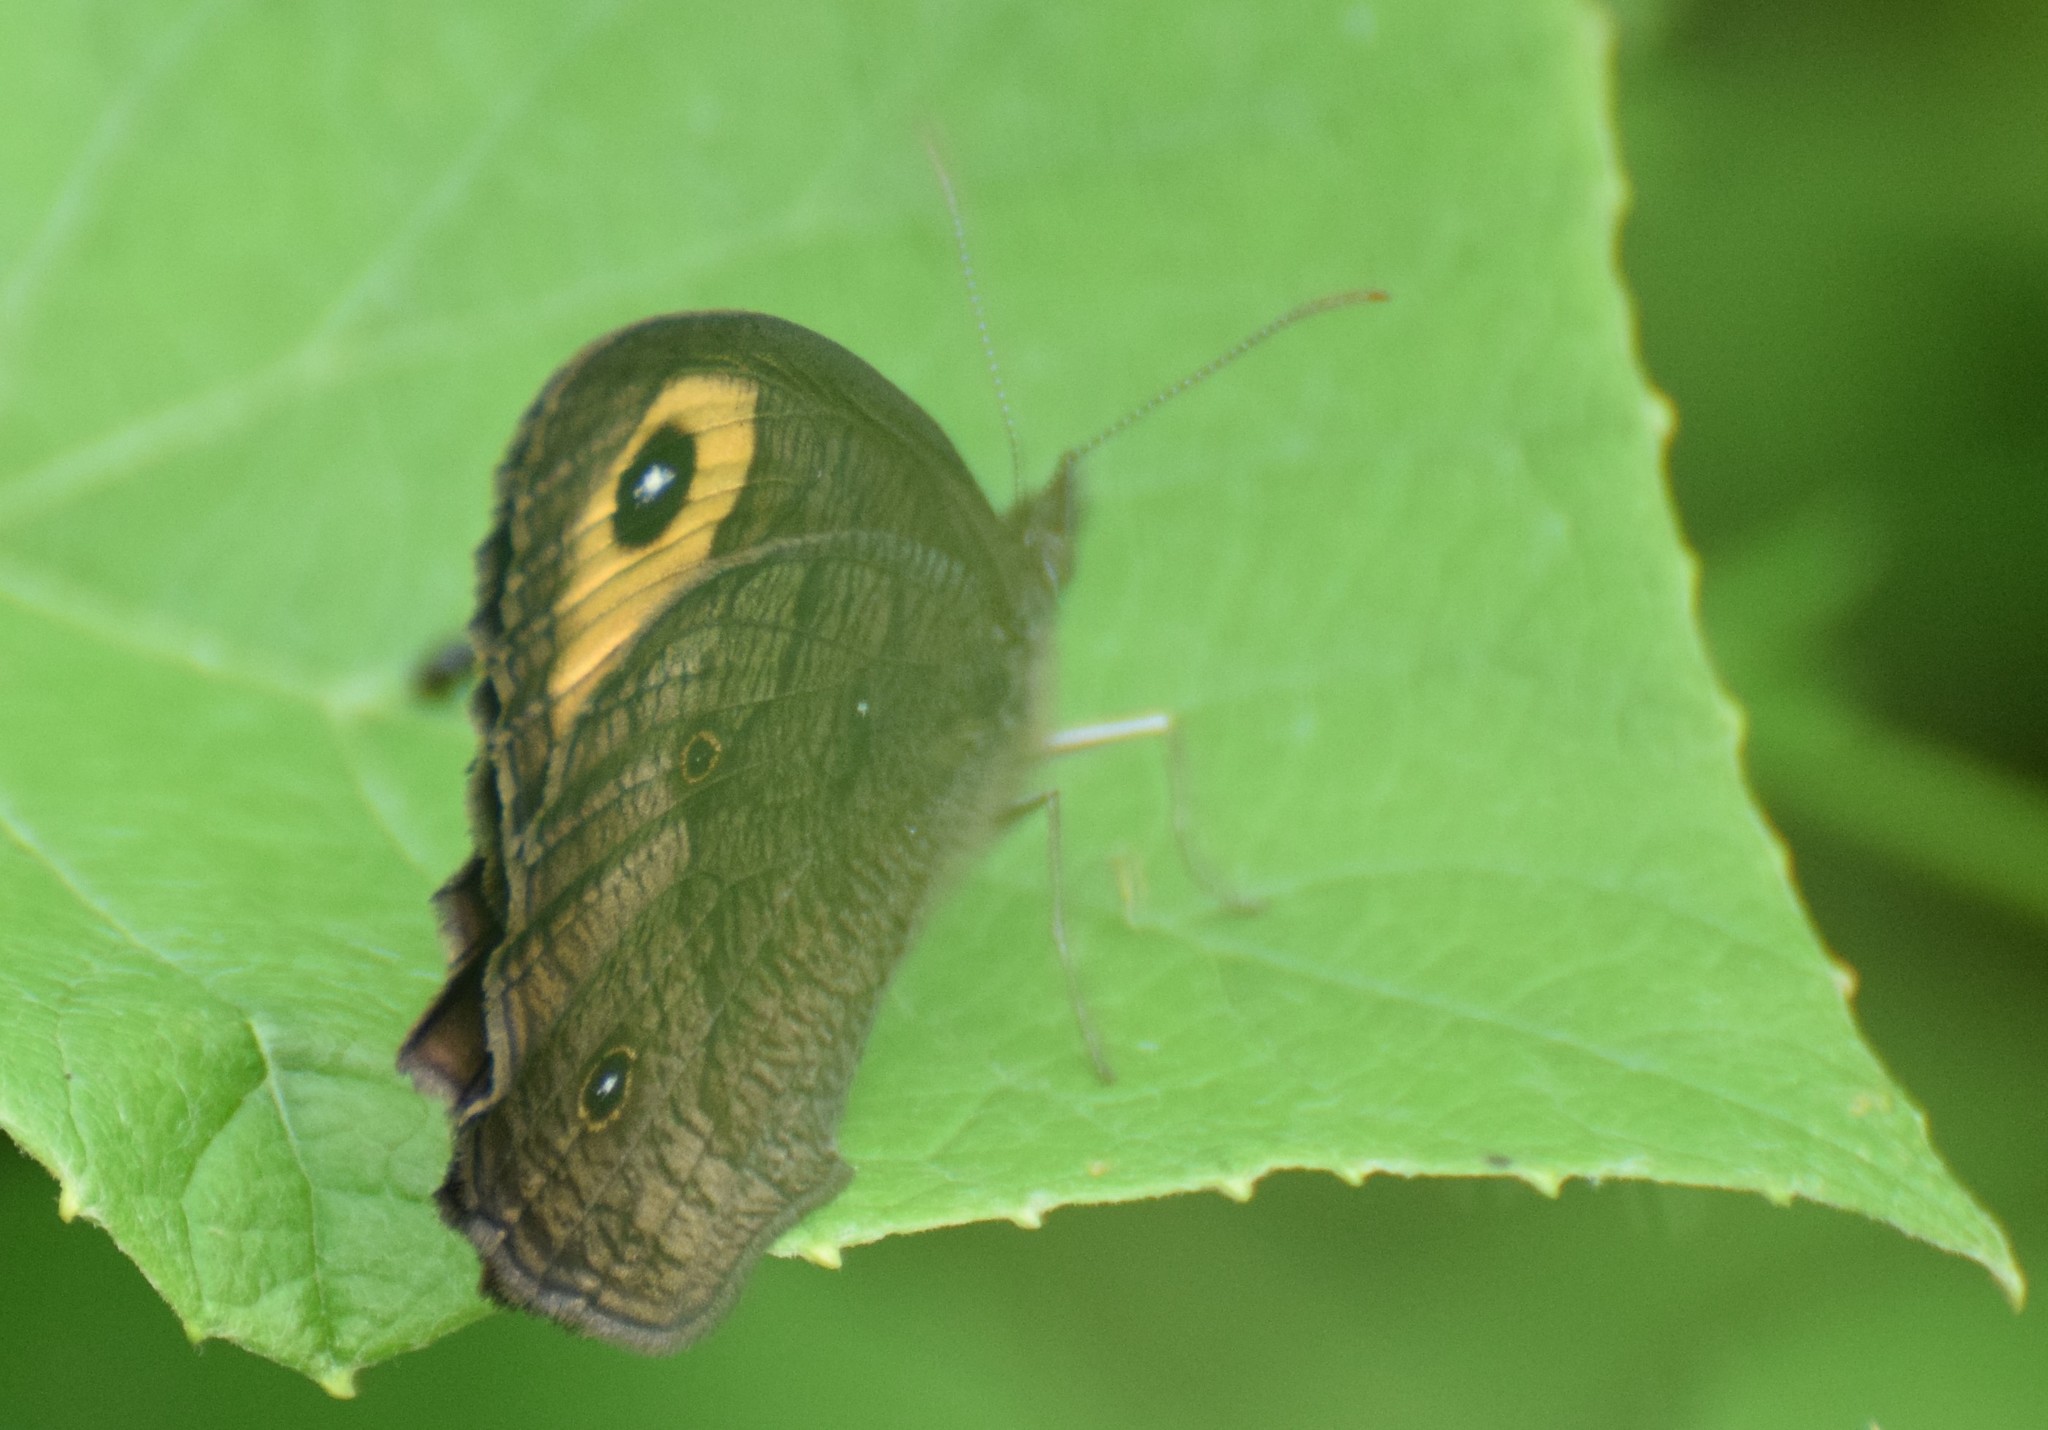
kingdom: Animalia
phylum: Arthropoda
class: Insecta
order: Lepidoptera
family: Nymphalidae
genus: Cercyonis
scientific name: Cercyonis pegala
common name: Common wood-nymph
